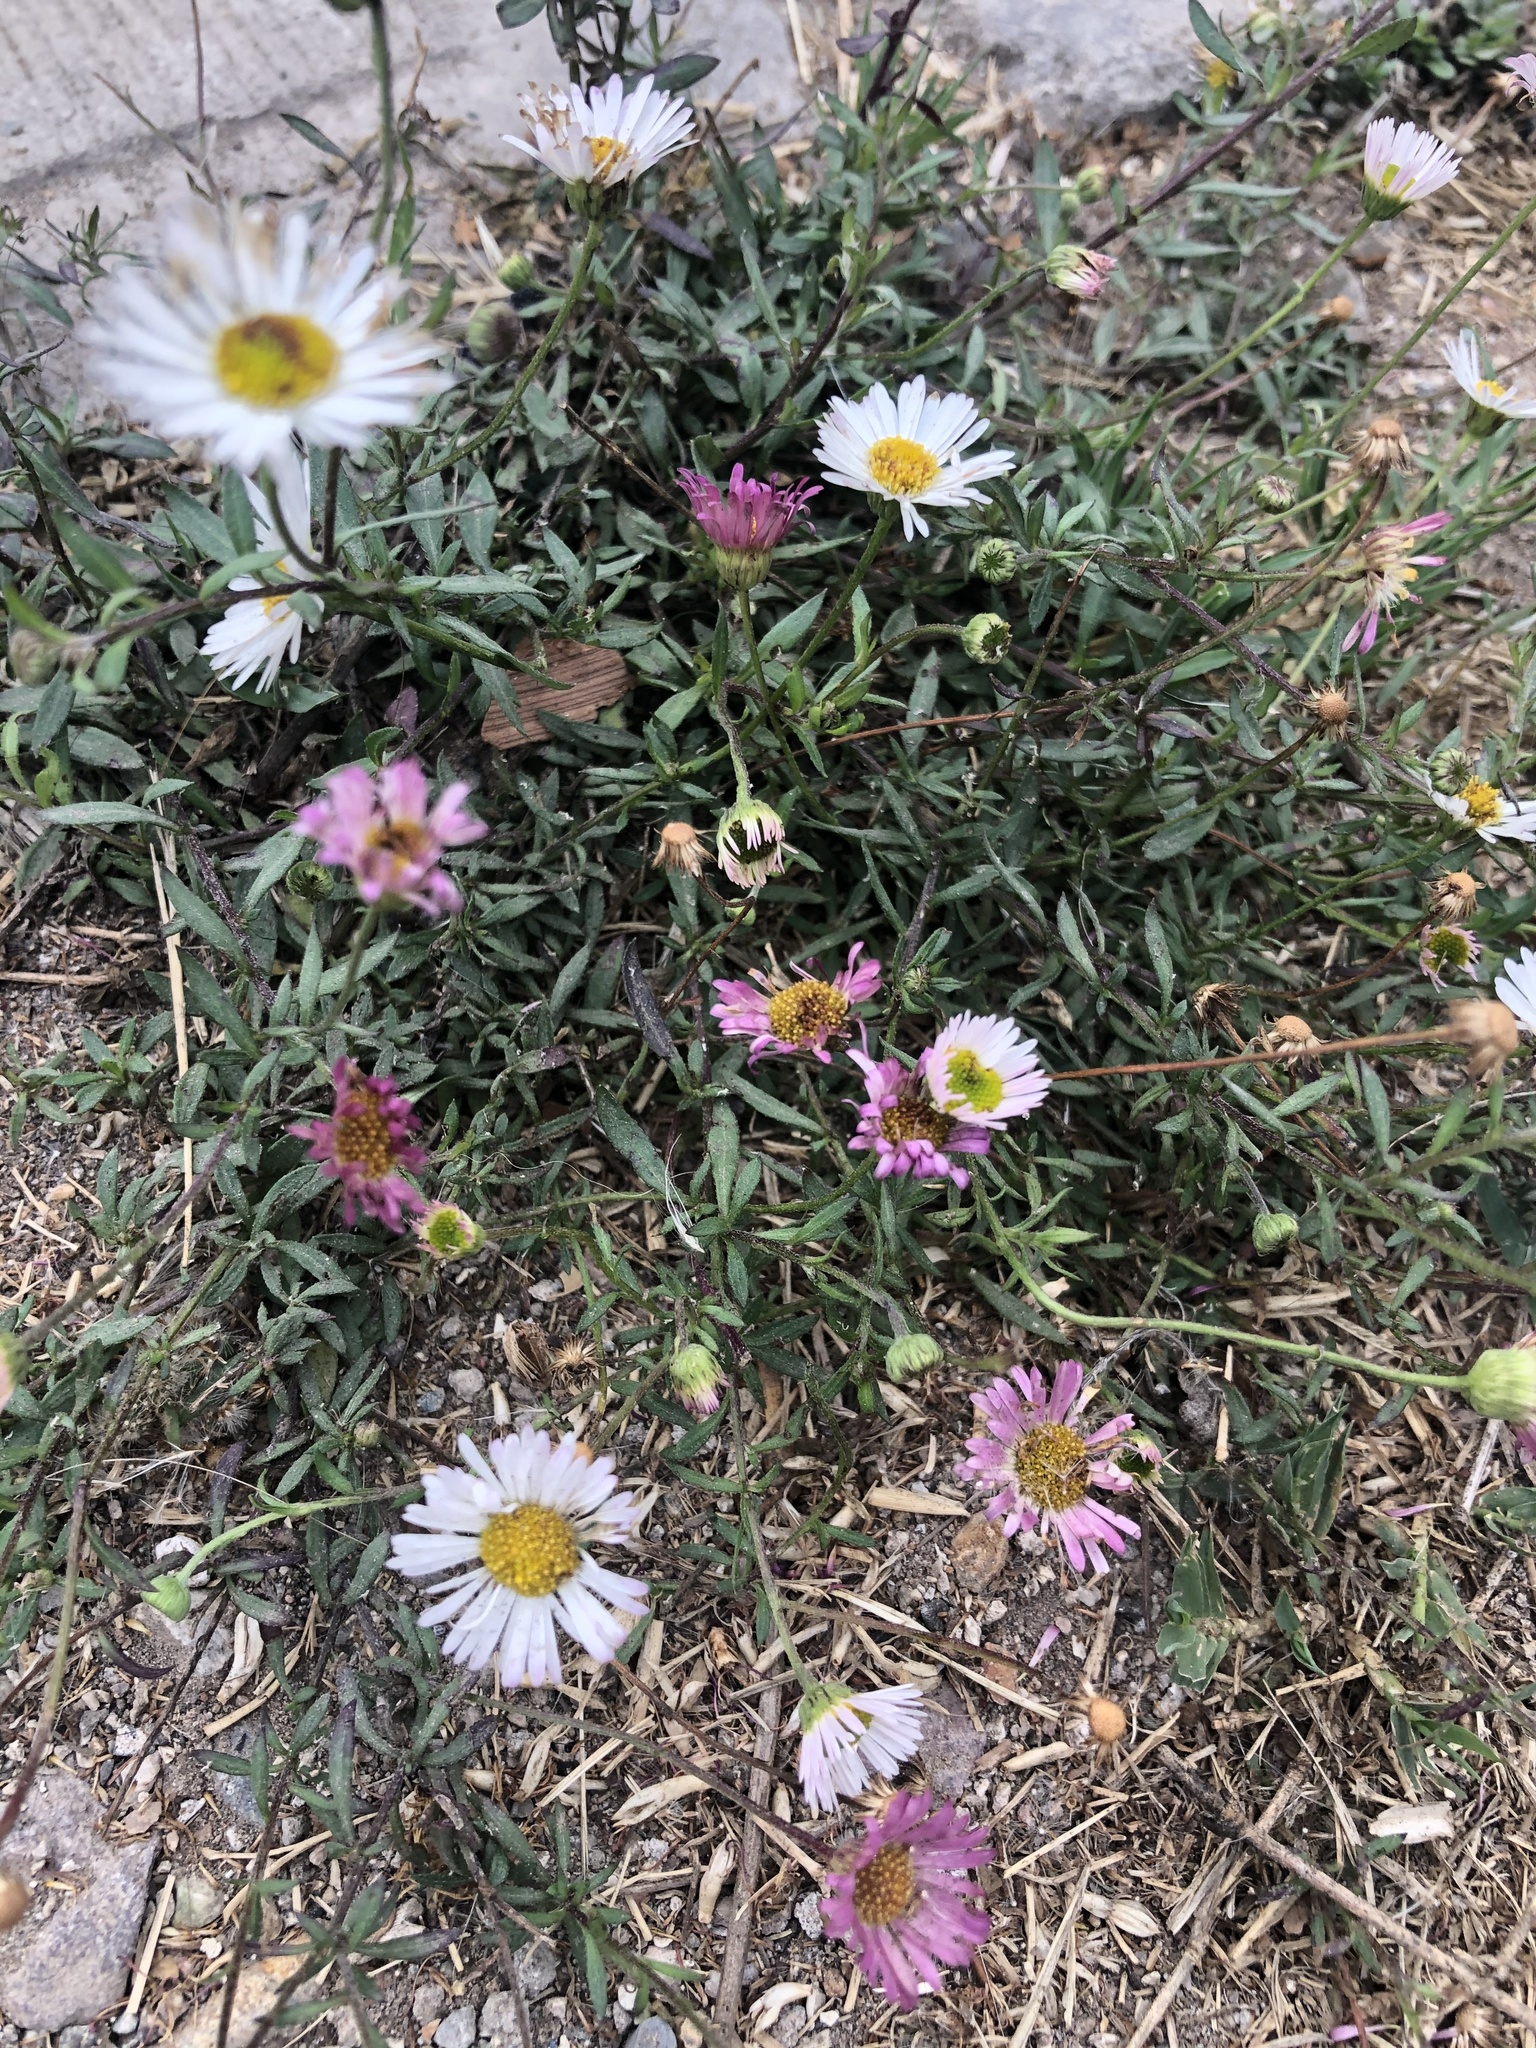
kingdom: Plantae
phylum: Tracheophyta
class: Magnoliopsida
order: Asterales
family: Asteraceae
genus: Erigeron
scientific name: Erigeron karvinskianus
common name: Mexican fleabane
